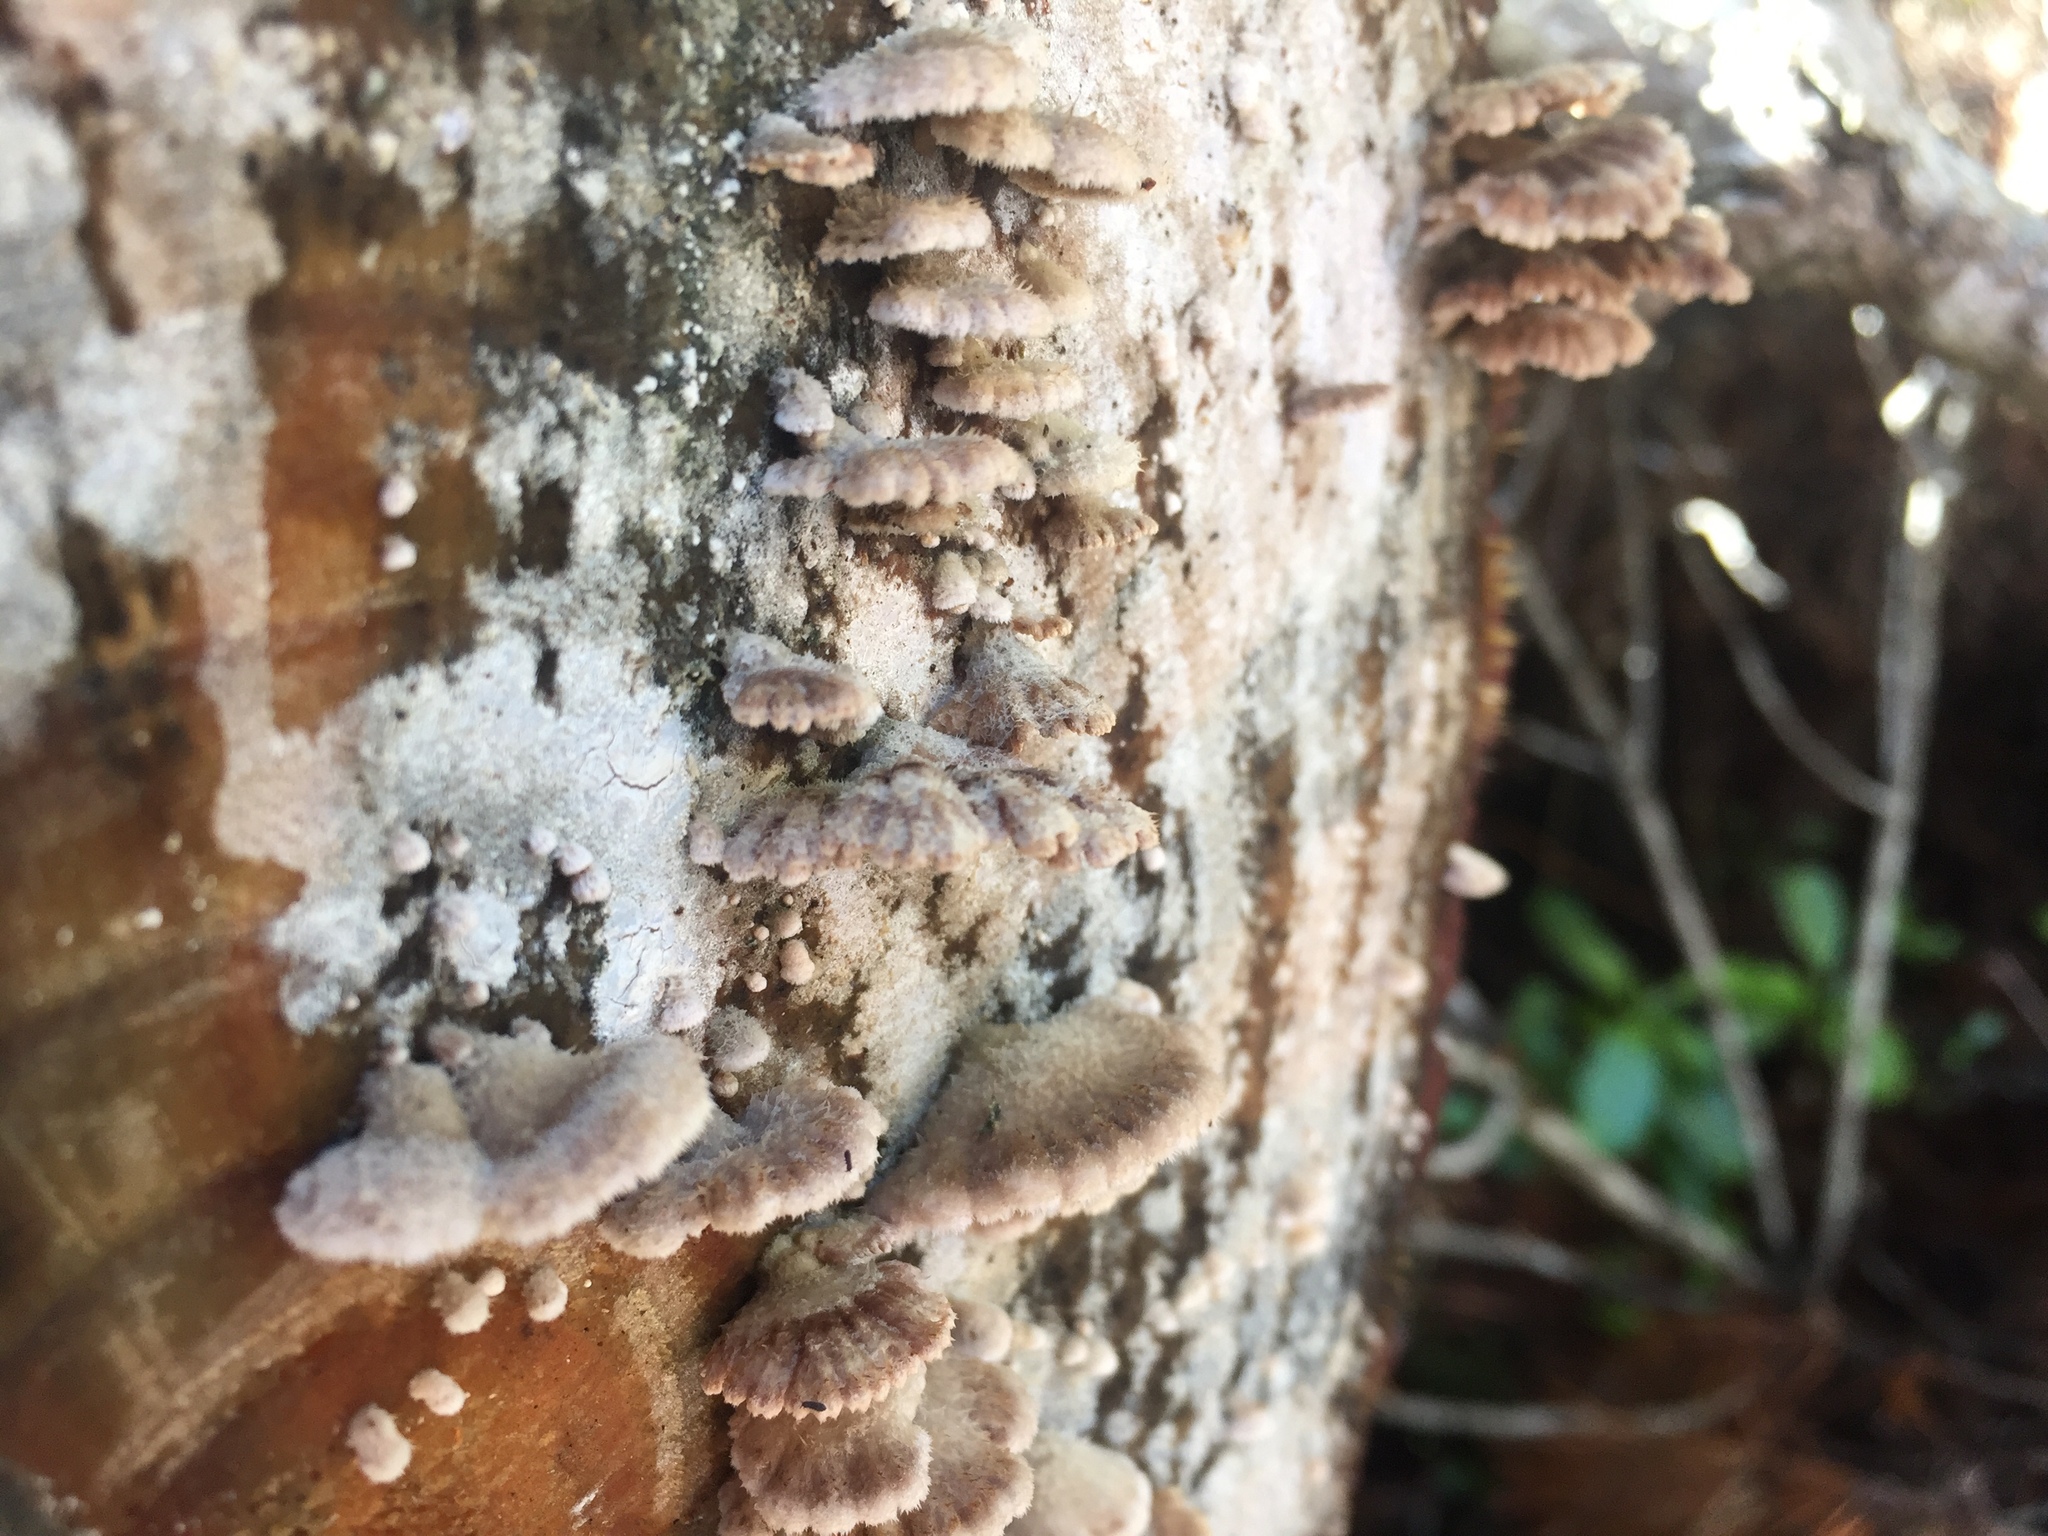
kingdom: Fungi
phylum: Basidiomycota
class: Agaricomycetes
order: Agaricales
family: Schizophyllaceae
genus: Schizophyllum
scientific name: Schizophyllum commune
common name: Common porecrust
